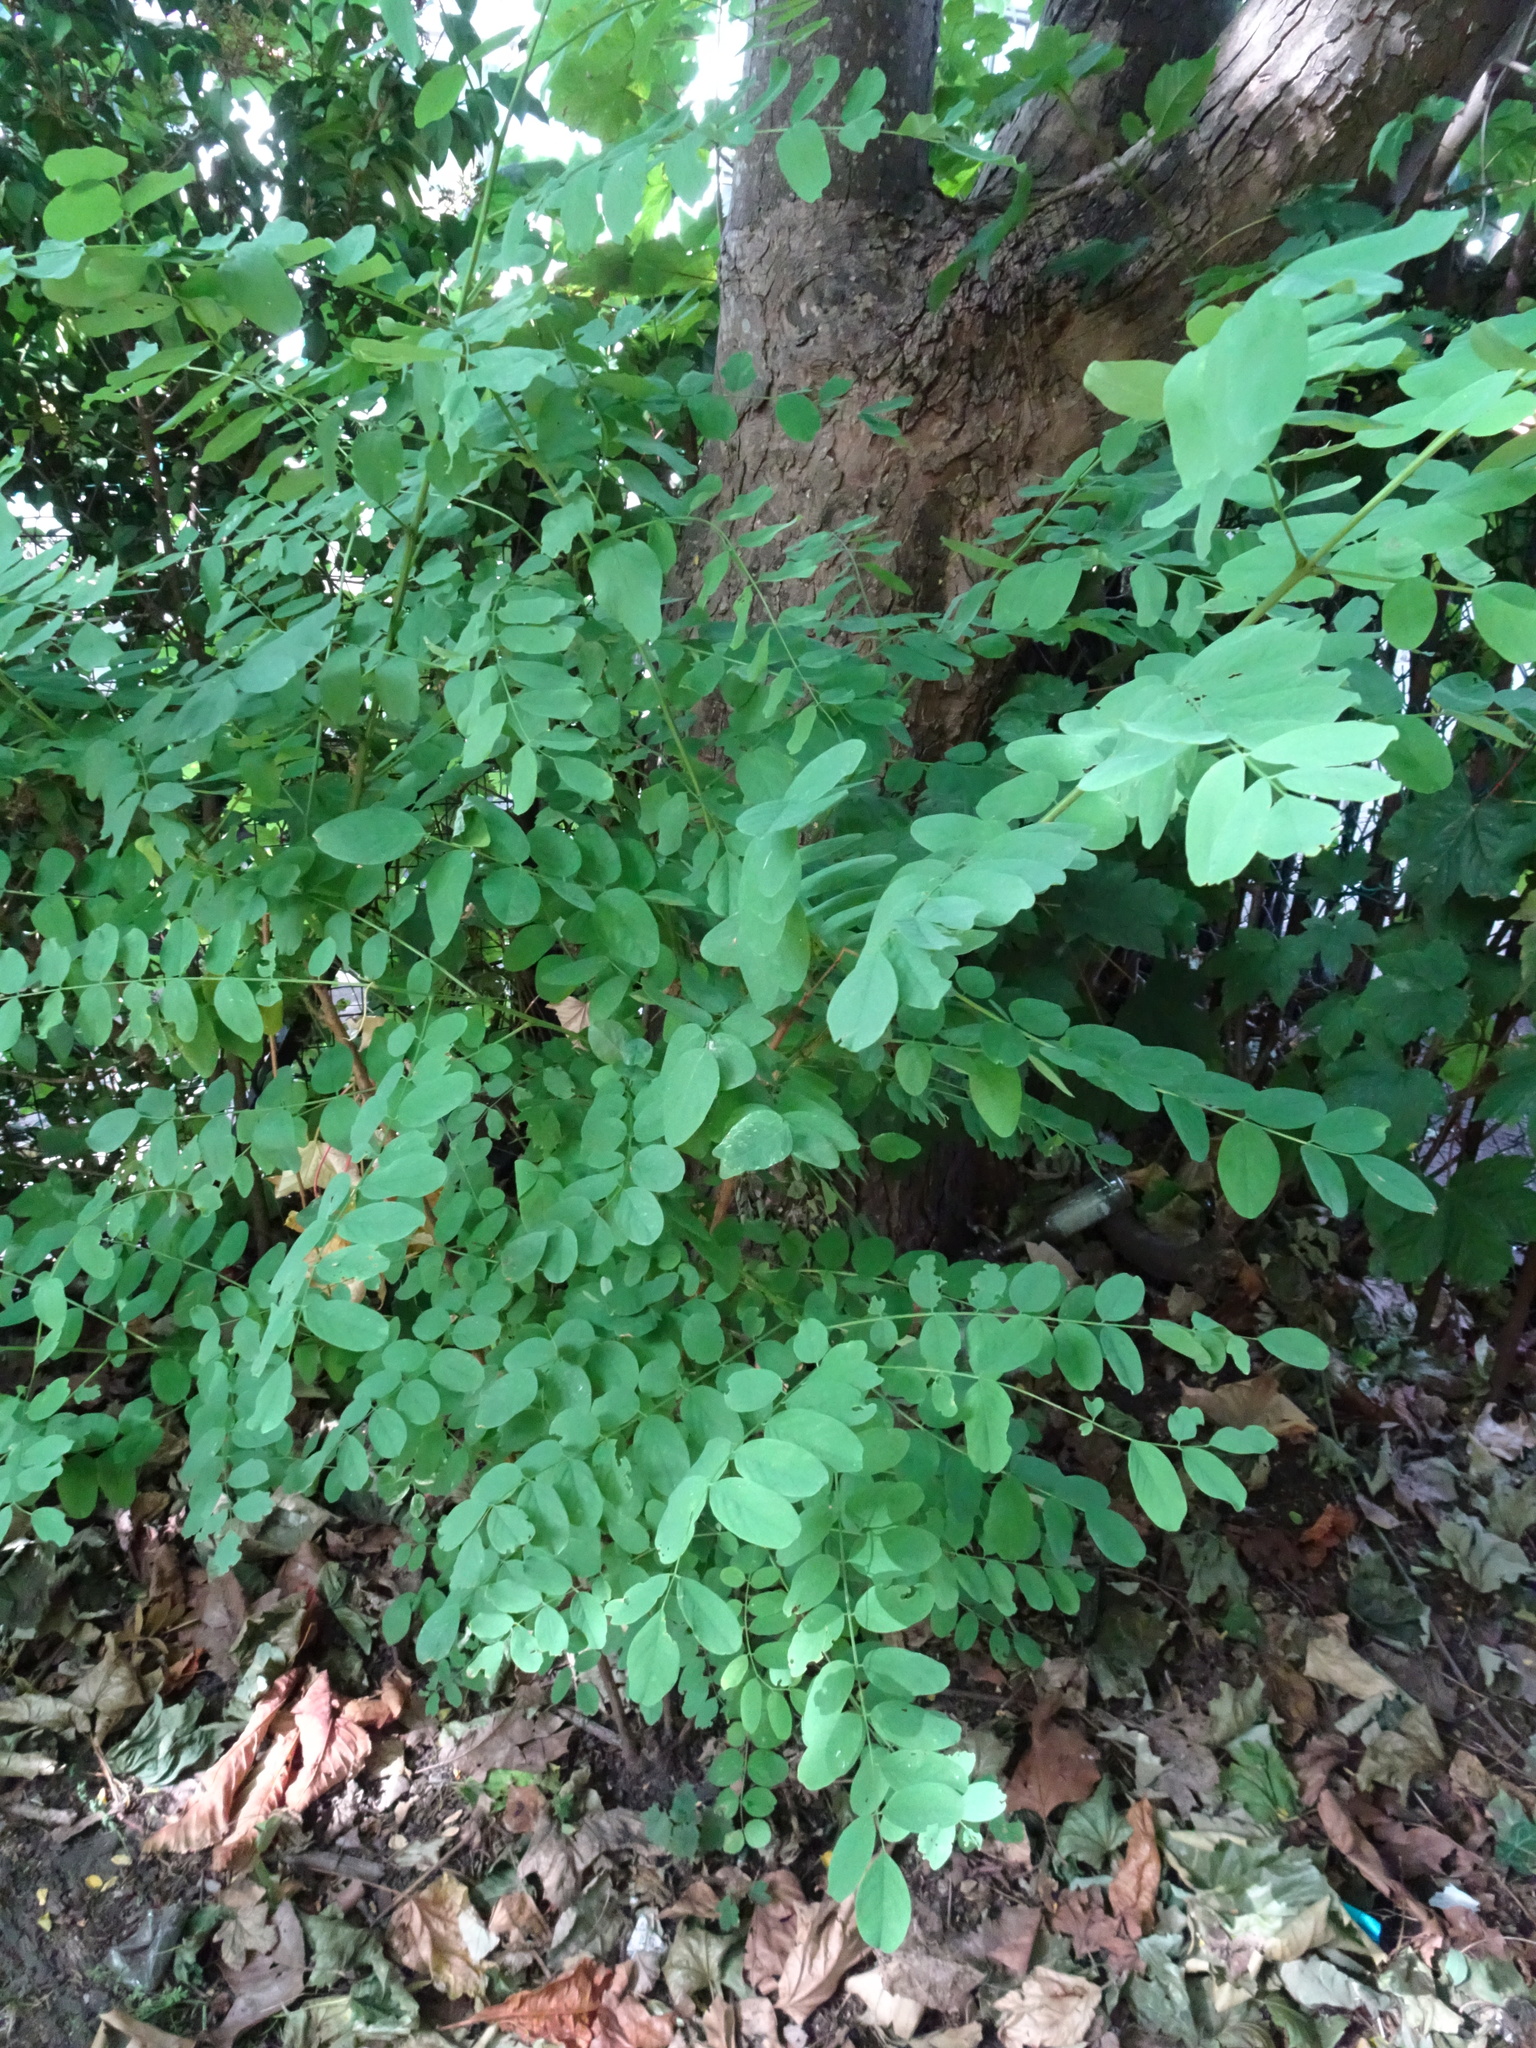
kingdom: Plantae
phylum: Tracheophyta
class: Magnoliopsida
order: Fabales
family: Fabaceae
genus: Robinia
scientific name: Robinia pseudoacacia
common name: Black locust
